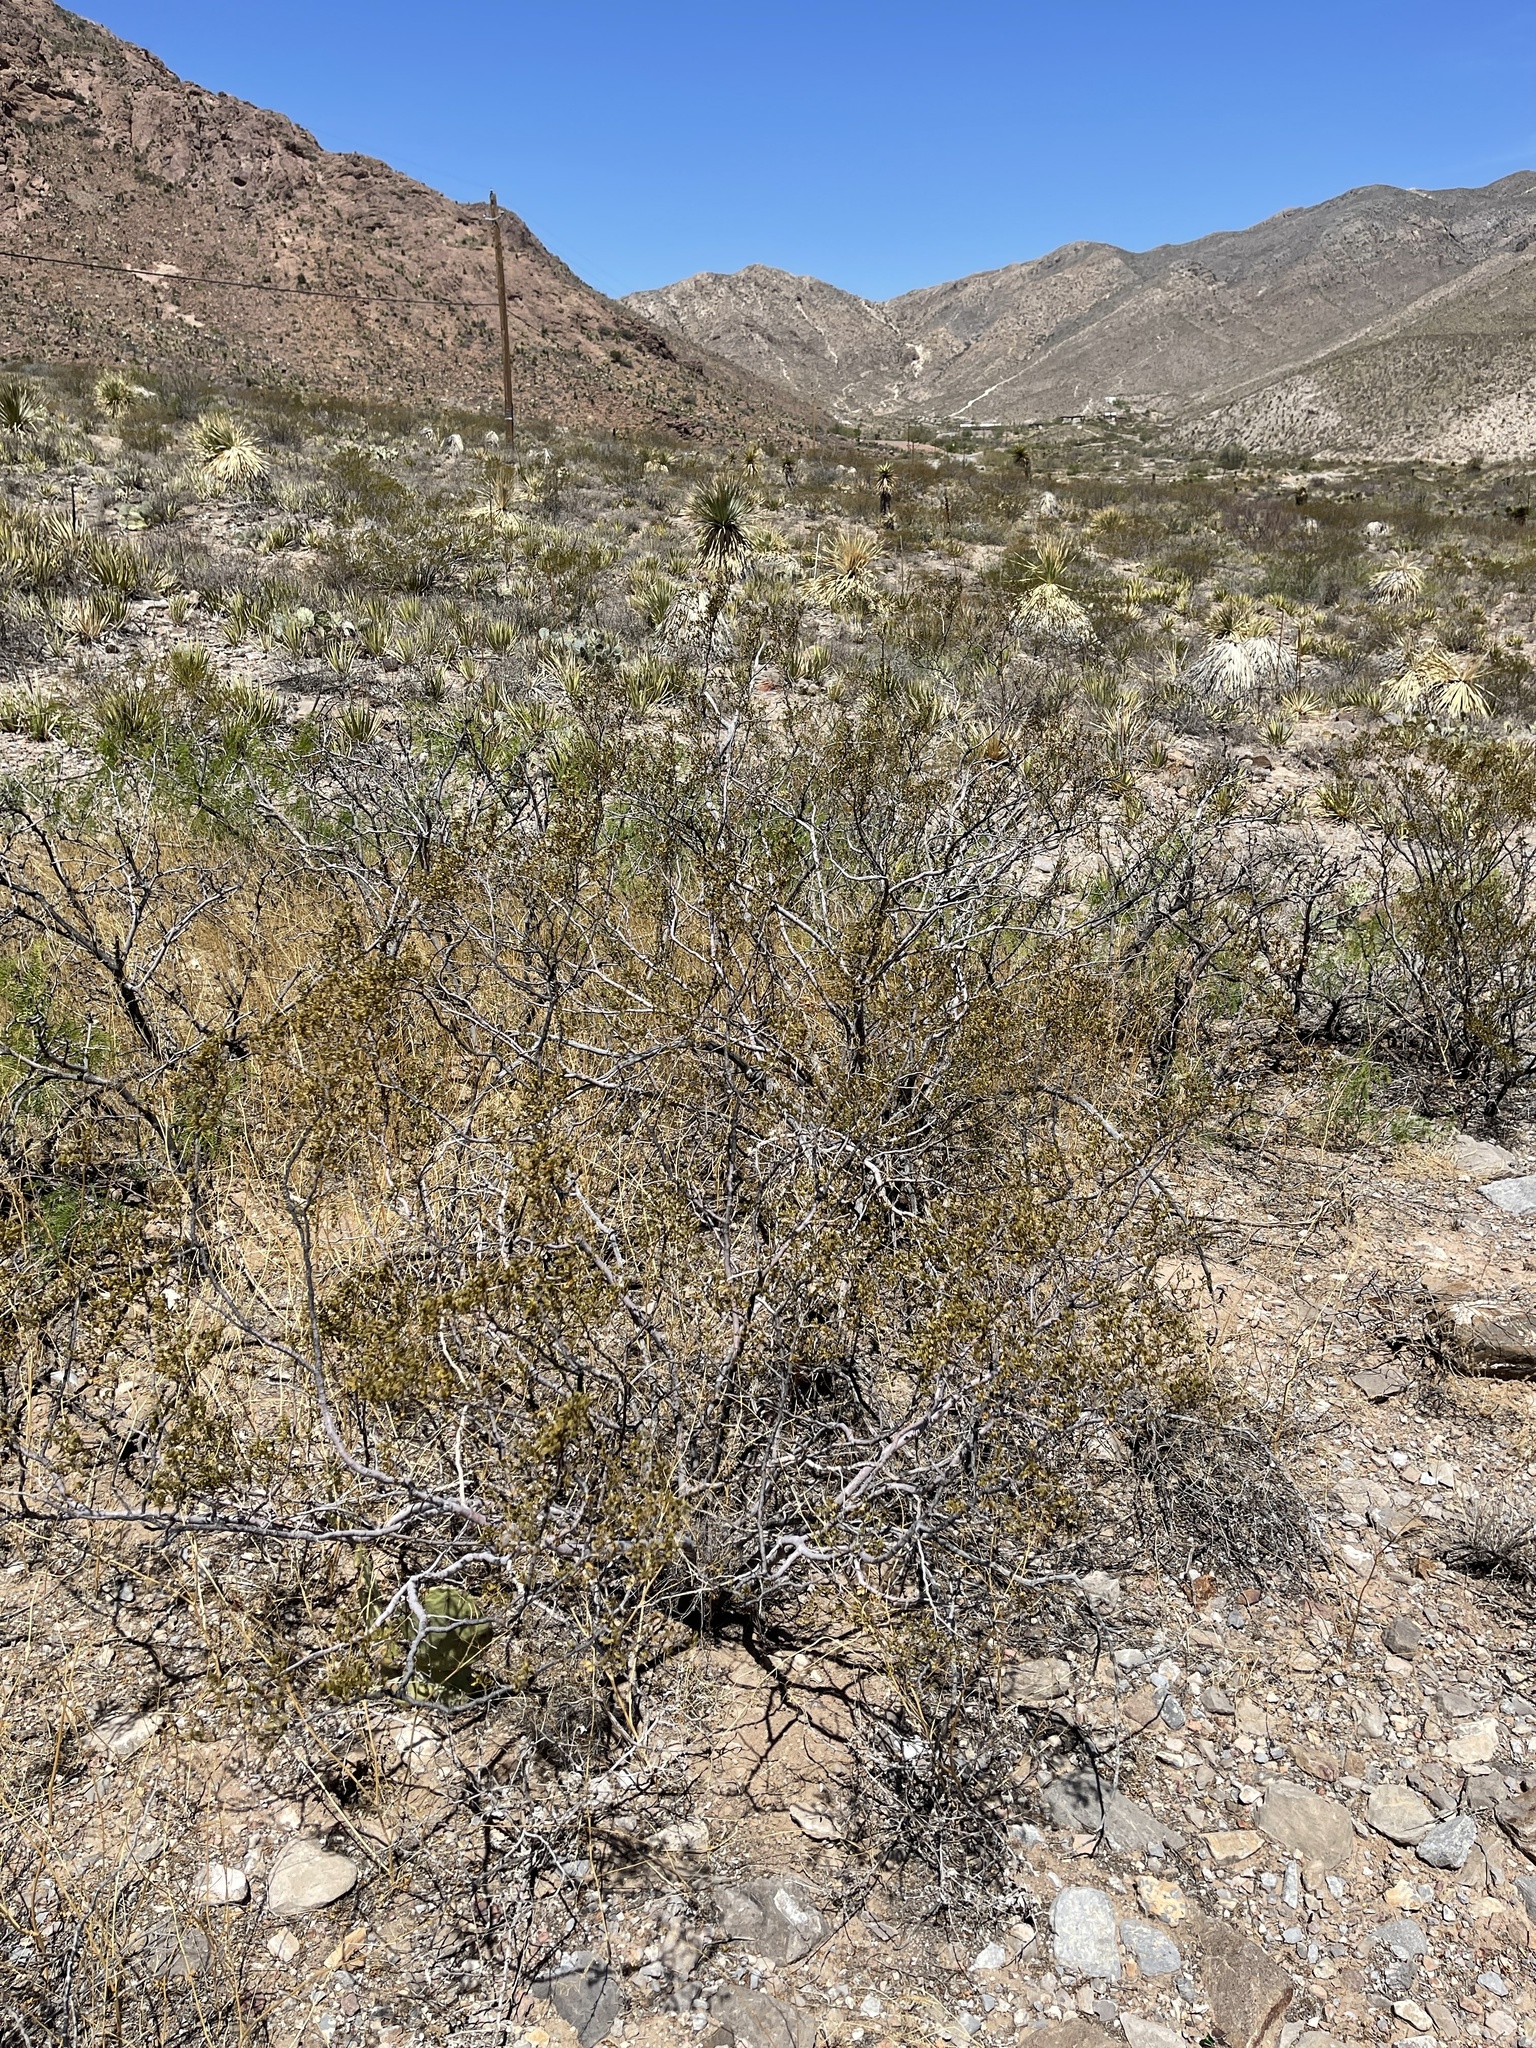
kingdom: Plantae
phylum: Tracheophyta
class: Magnoliopsida
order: Zygophyllales
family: Zygophyllaceae
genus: Larrea
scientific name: Larrea tridentata
